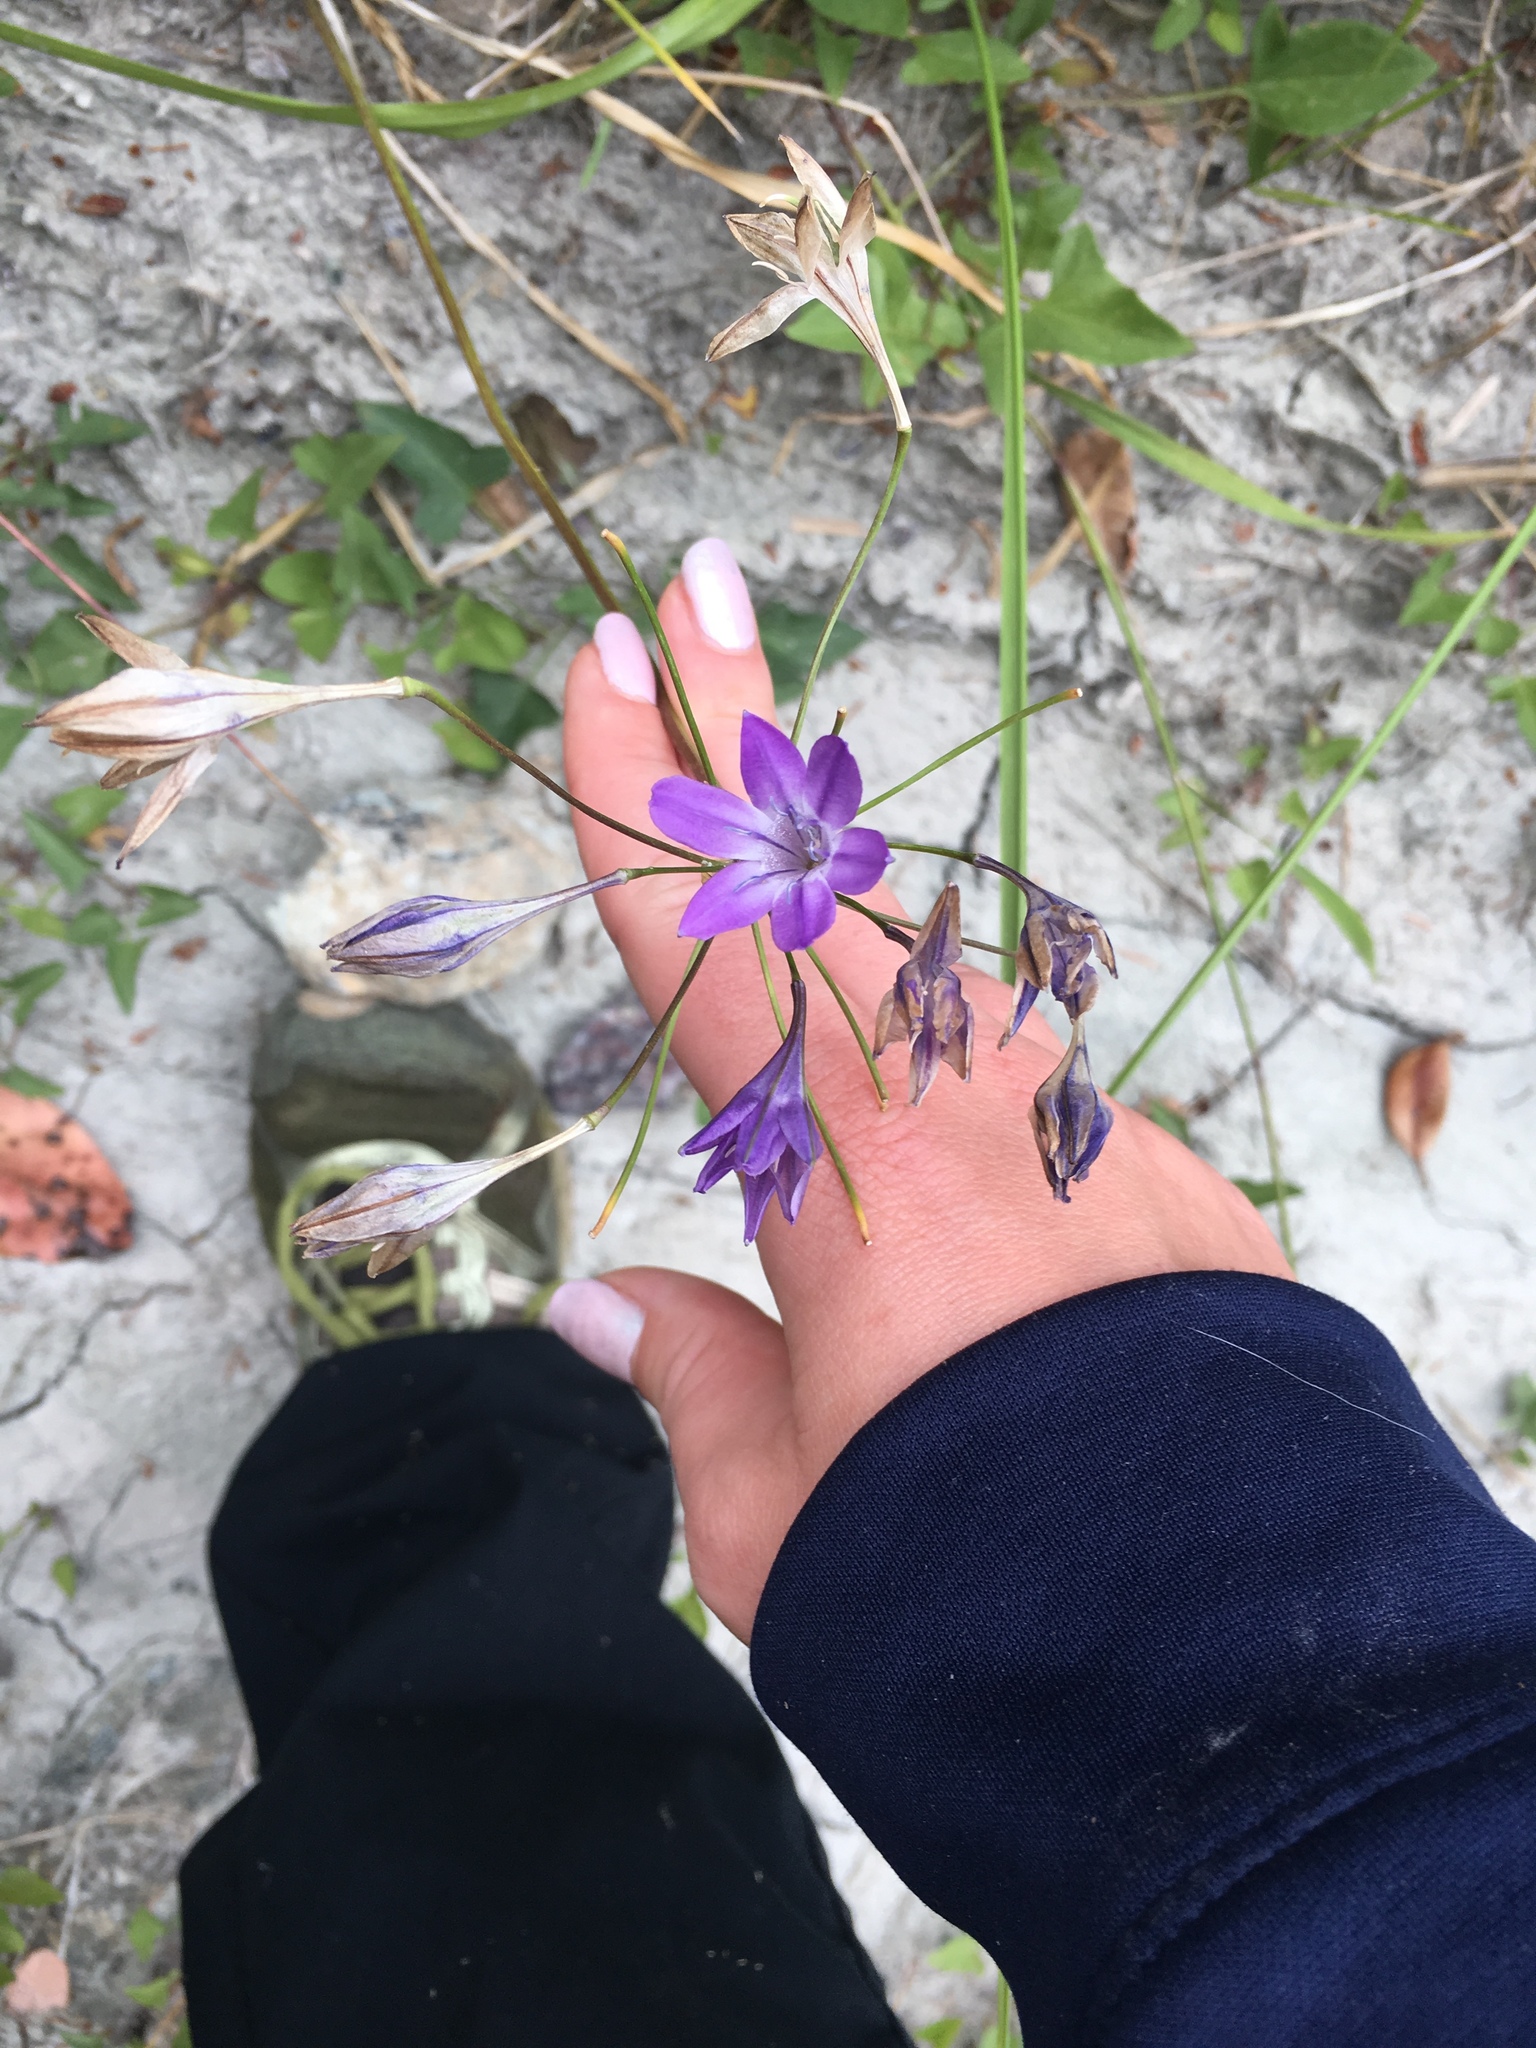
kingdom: Plantae
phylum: Tracheophyta
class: Liliopsida
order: Asparagales
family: Asparagaceae
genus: Triteleia
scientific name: Triteleia bridgesii
